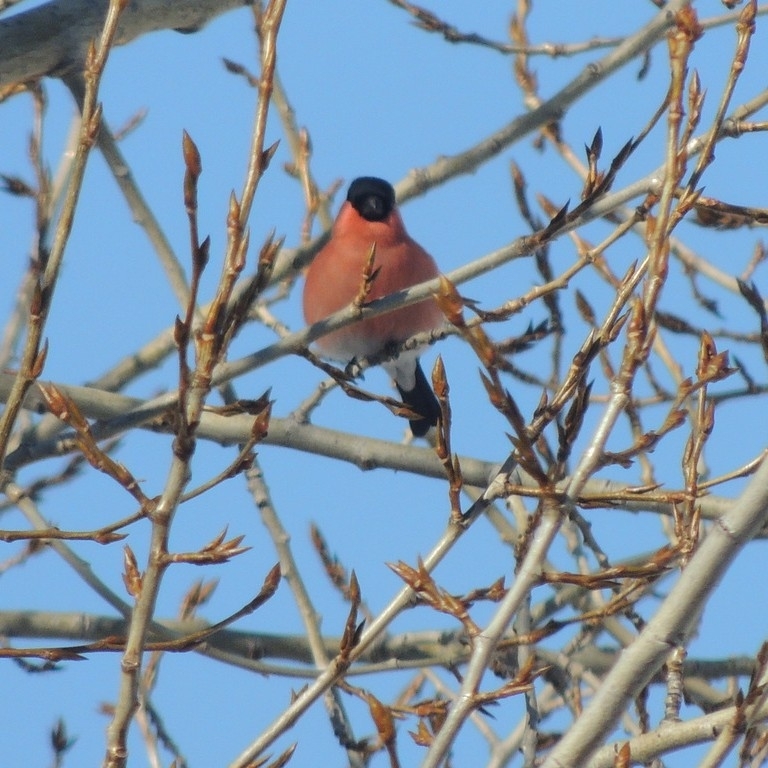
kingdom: Animalia
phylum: Chordata
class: Aves
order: Passeriformes
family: Fringillidae
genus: Pyrrhula
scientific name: Pyrrhula pyrrhula
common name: Eurasian bullfinch
